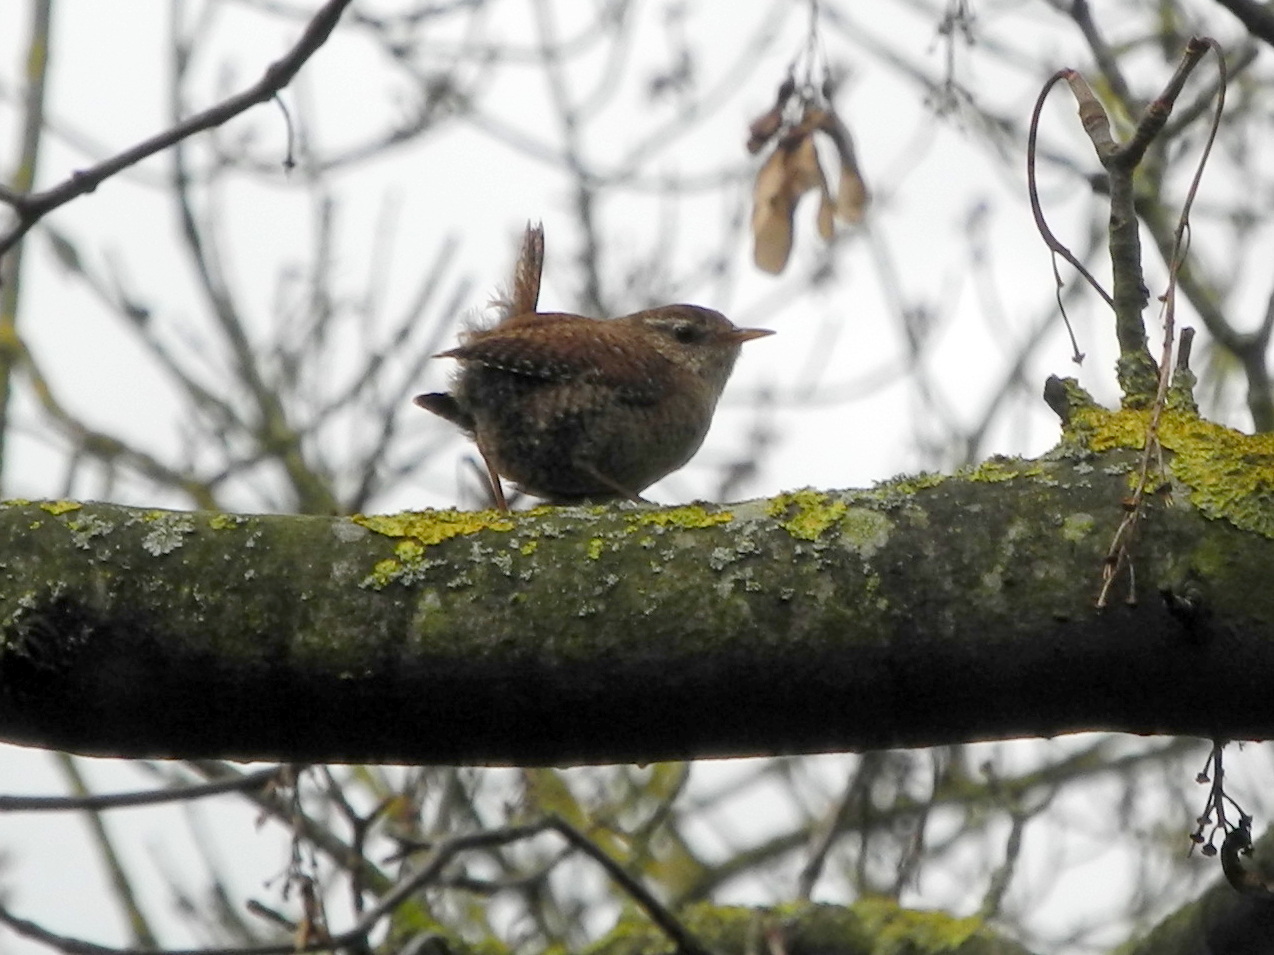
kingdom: Animalia
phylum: Chordata
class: Aves
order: Passeriformes
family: Troglodytidae
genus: Troglodytes
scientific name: Troglodytes troglodytes
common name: Eurasian wren
